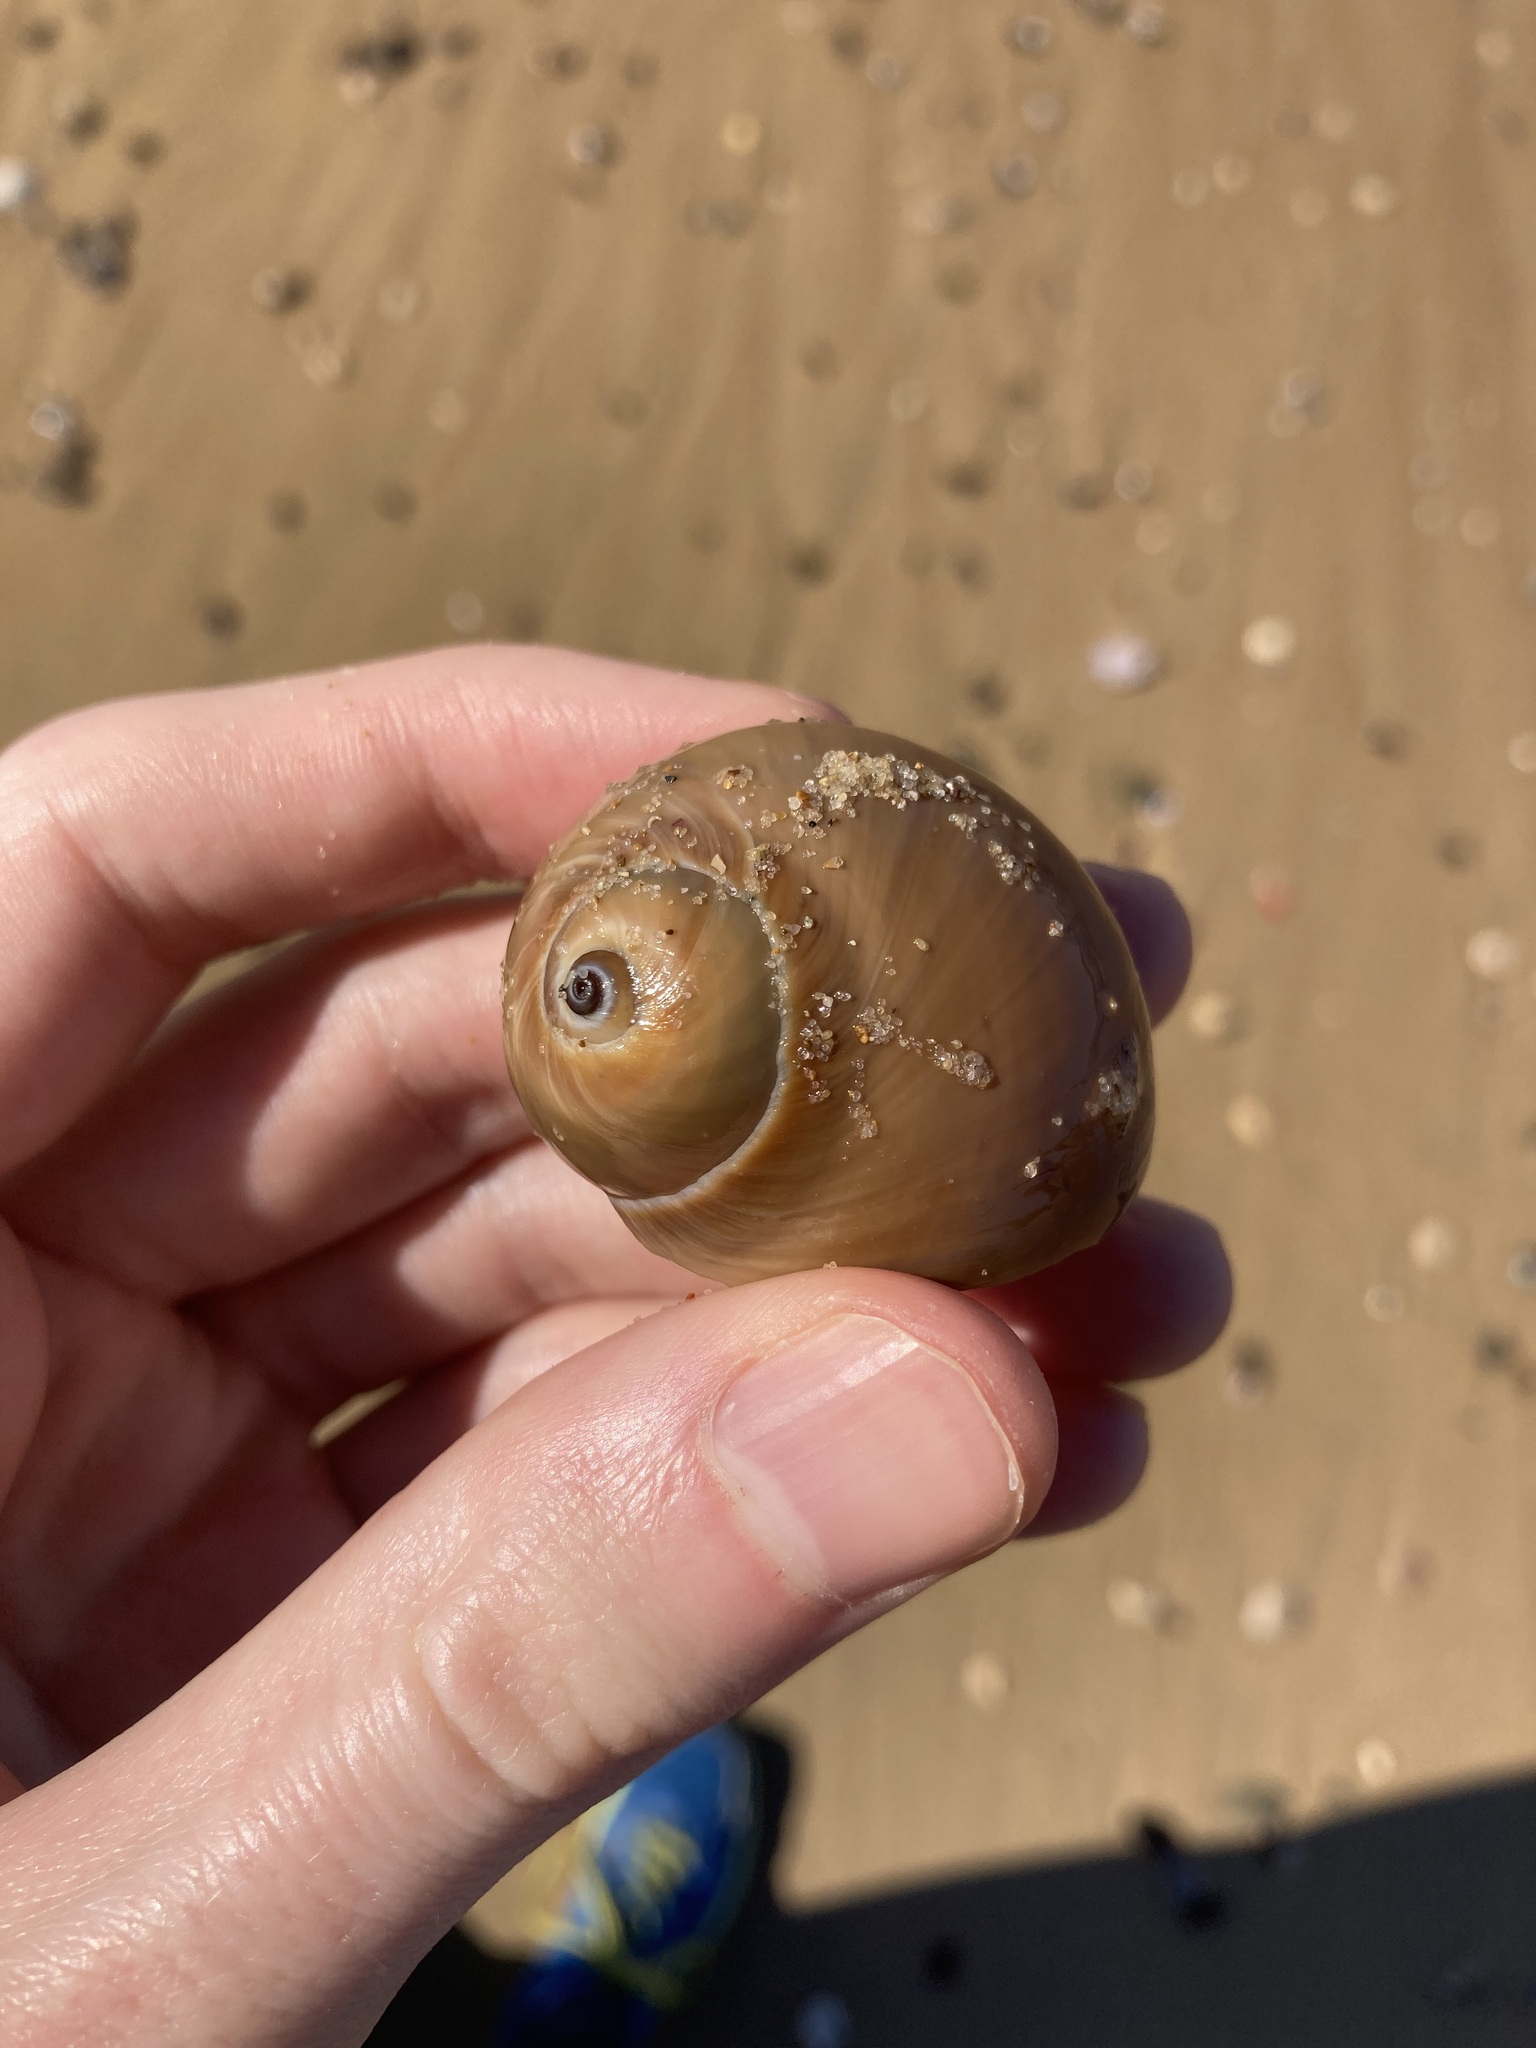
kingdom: Animalia
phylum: Mollusca
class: Gastropoda
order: Littorinimorpha
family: Naticidae
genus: Neverita
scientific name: Neverita didyma
